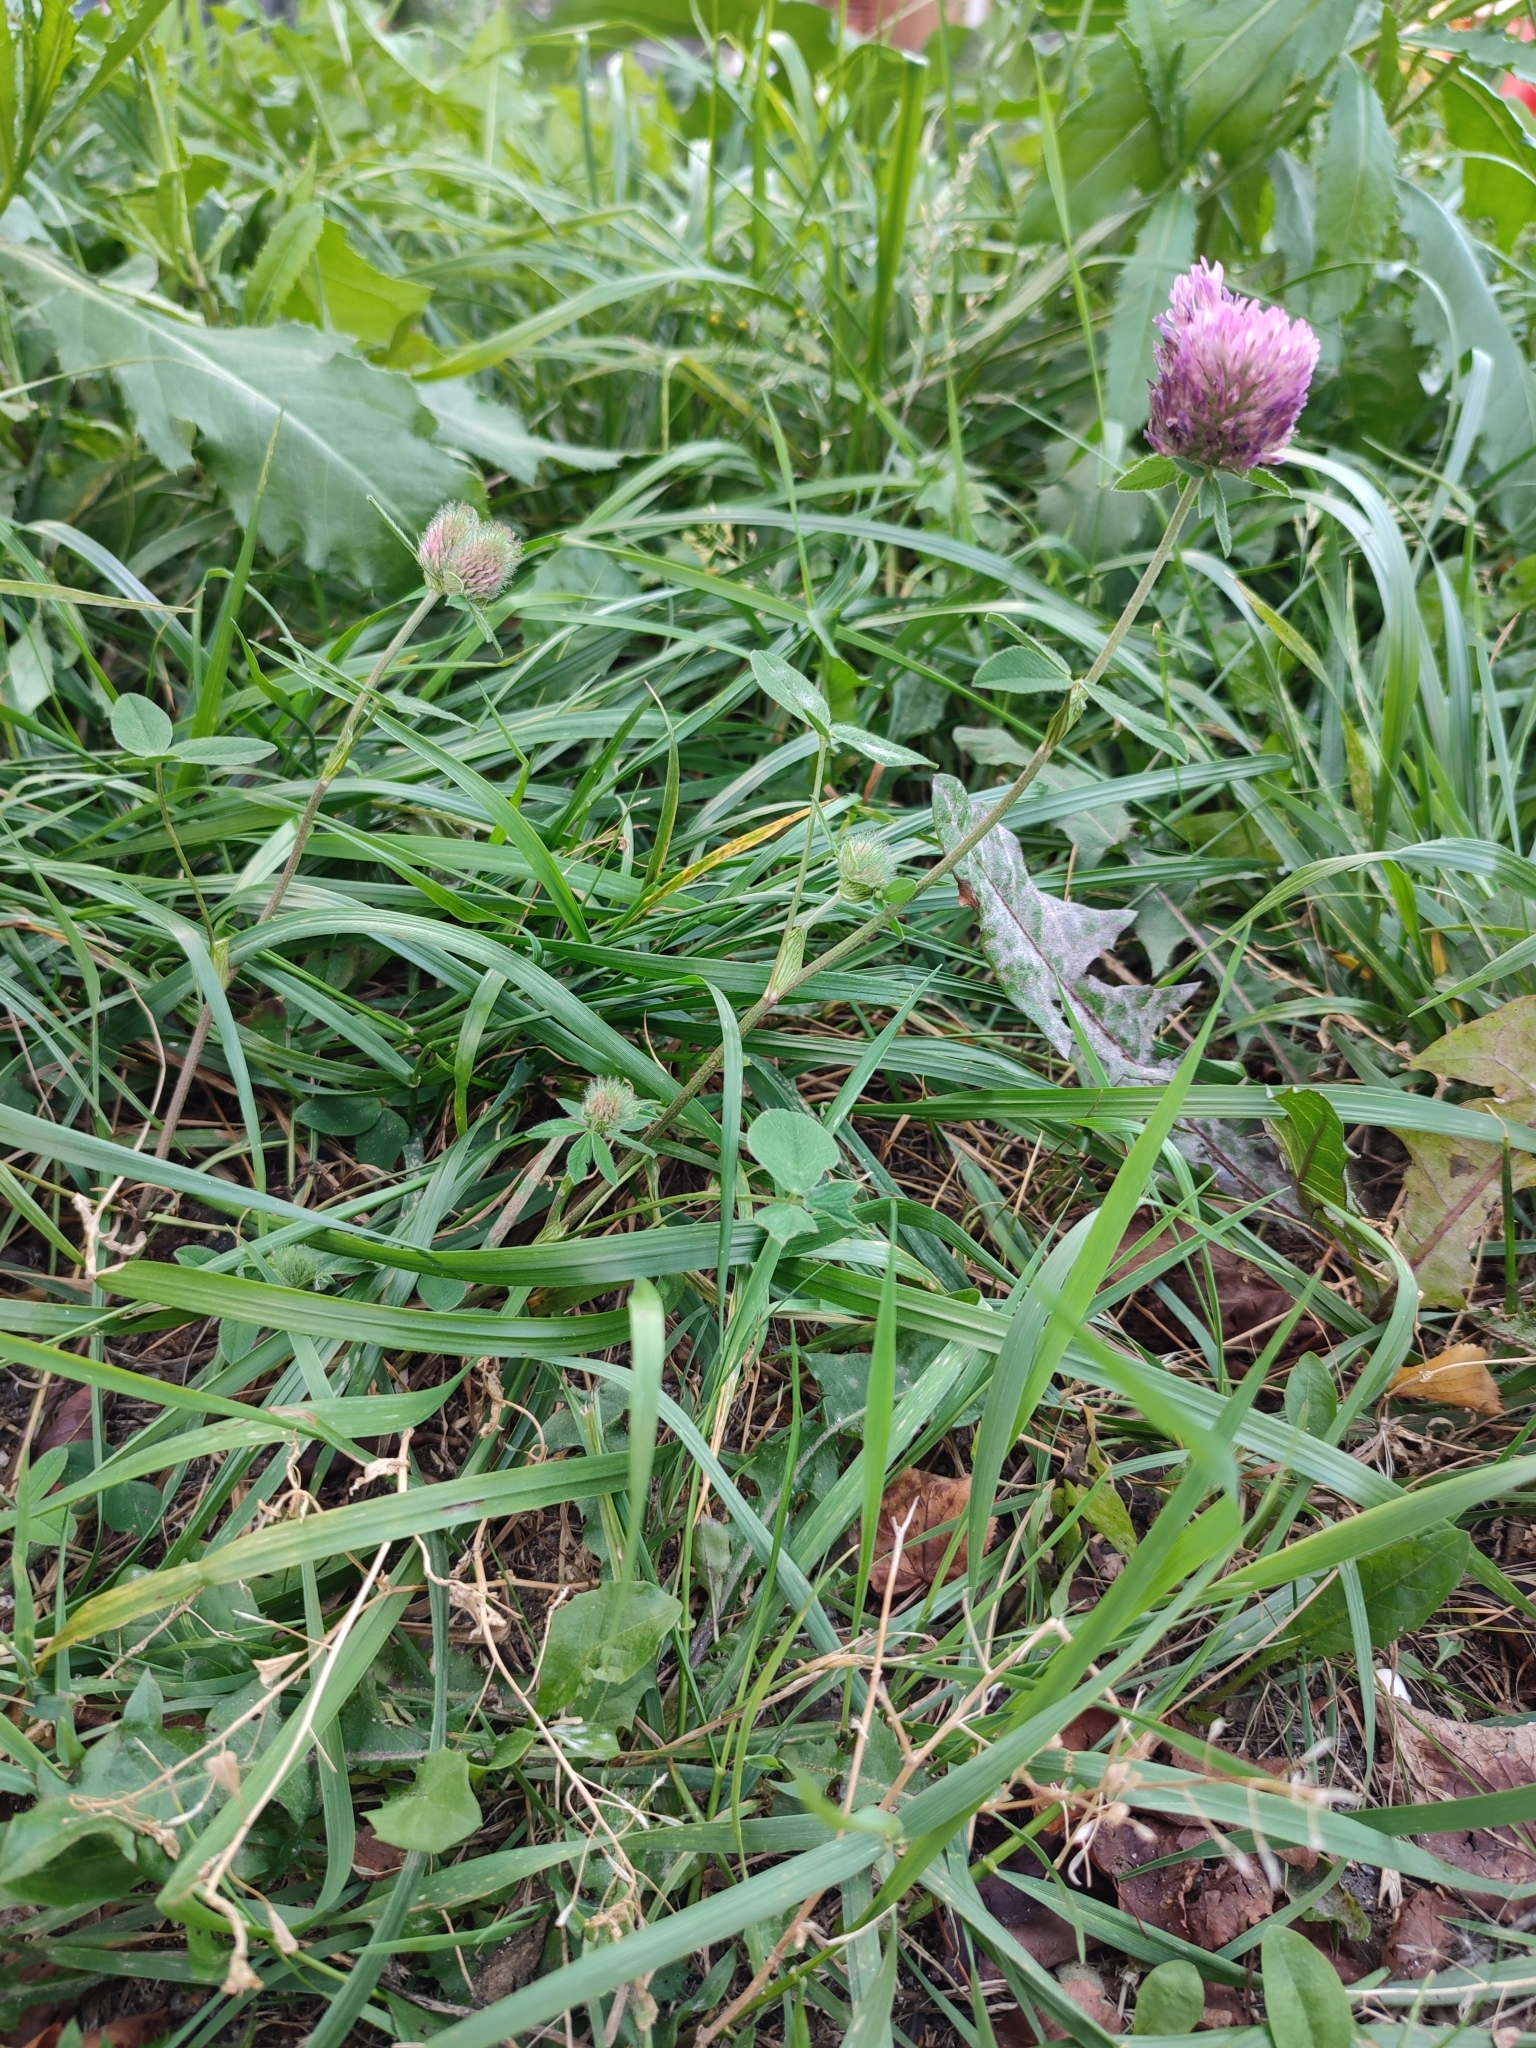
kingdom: Plantae
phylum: Tracheophyta
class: Magnoliopsida
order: Fabales
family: Fabaceae
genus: Trifolium
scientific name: Trifolium pratense
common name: Red clover
